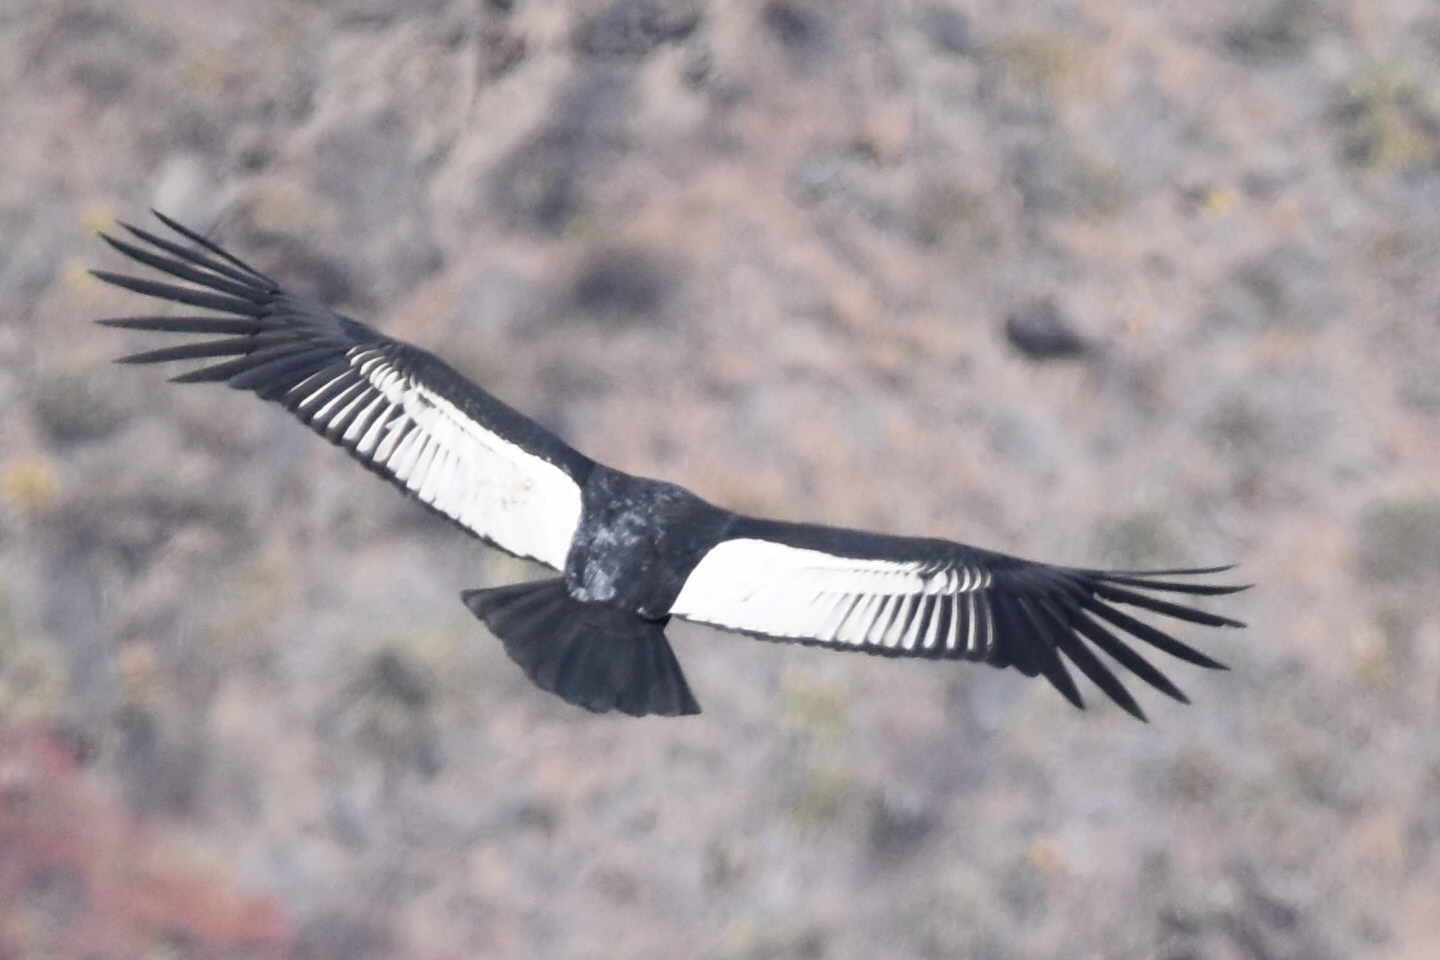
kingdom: Animalia
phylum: Chordata
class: Aves
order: Accipitriformes
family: Cathartidae
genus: Vultur
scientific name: Vultur gryphus
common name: Andean condor
